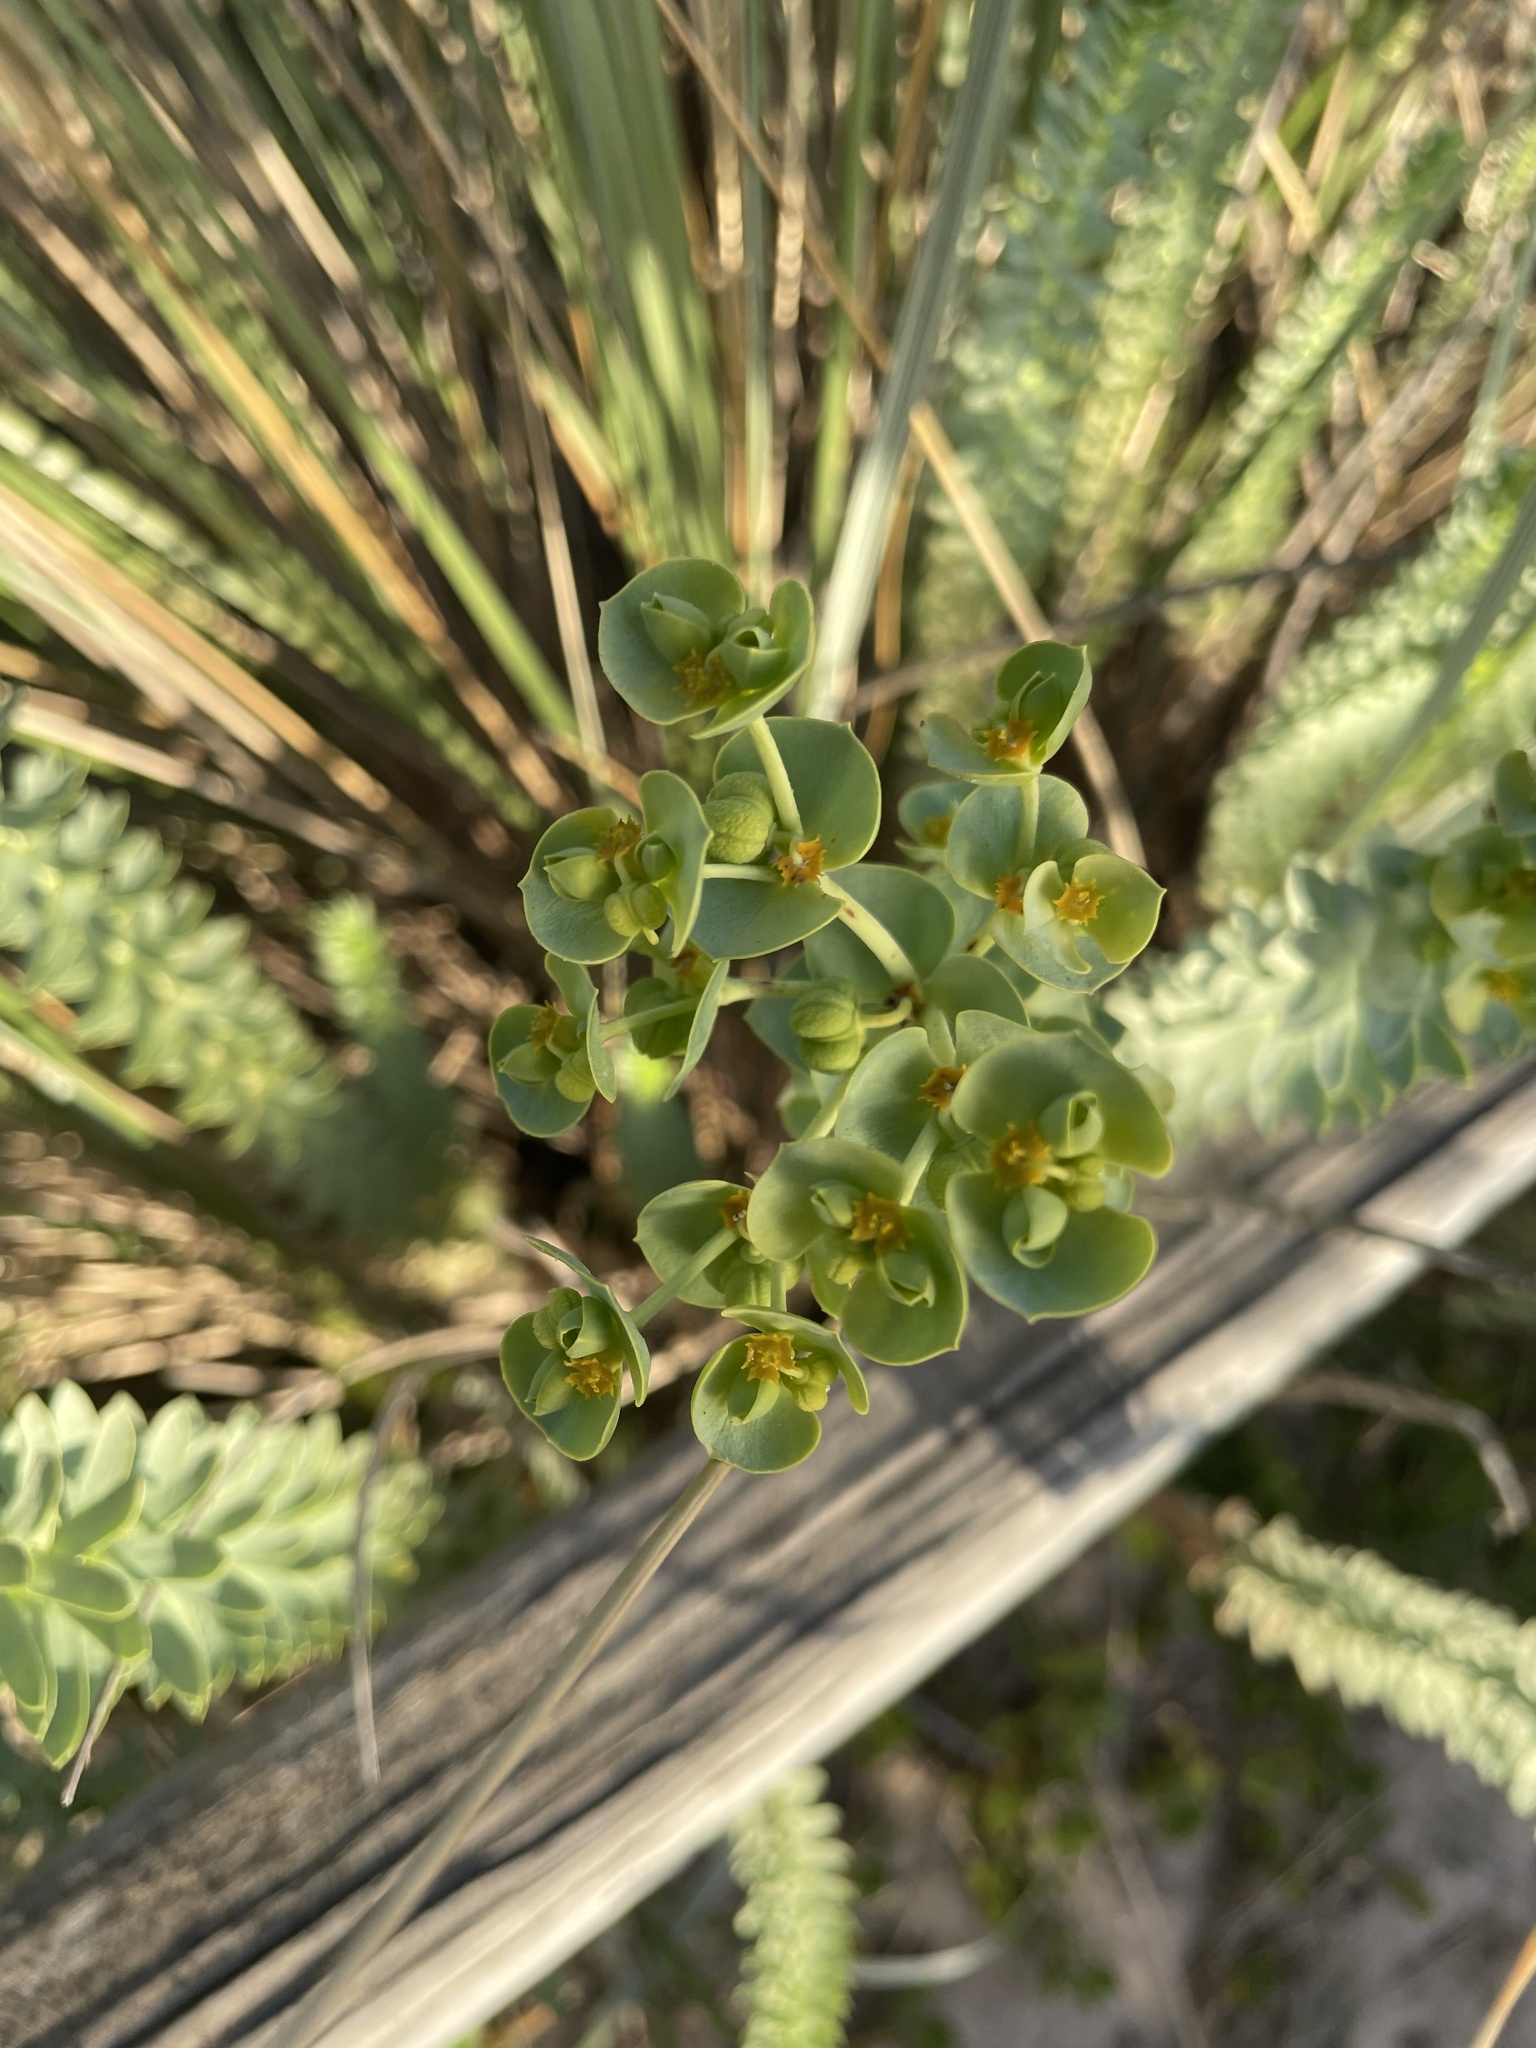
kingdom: Plantae
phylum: Tracheophyta
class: Magnoliopsida
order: Malpighiales
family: Euphorbiaceae
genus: Euphorbia
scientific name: Euphorbia paralias
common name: Sea spurge
